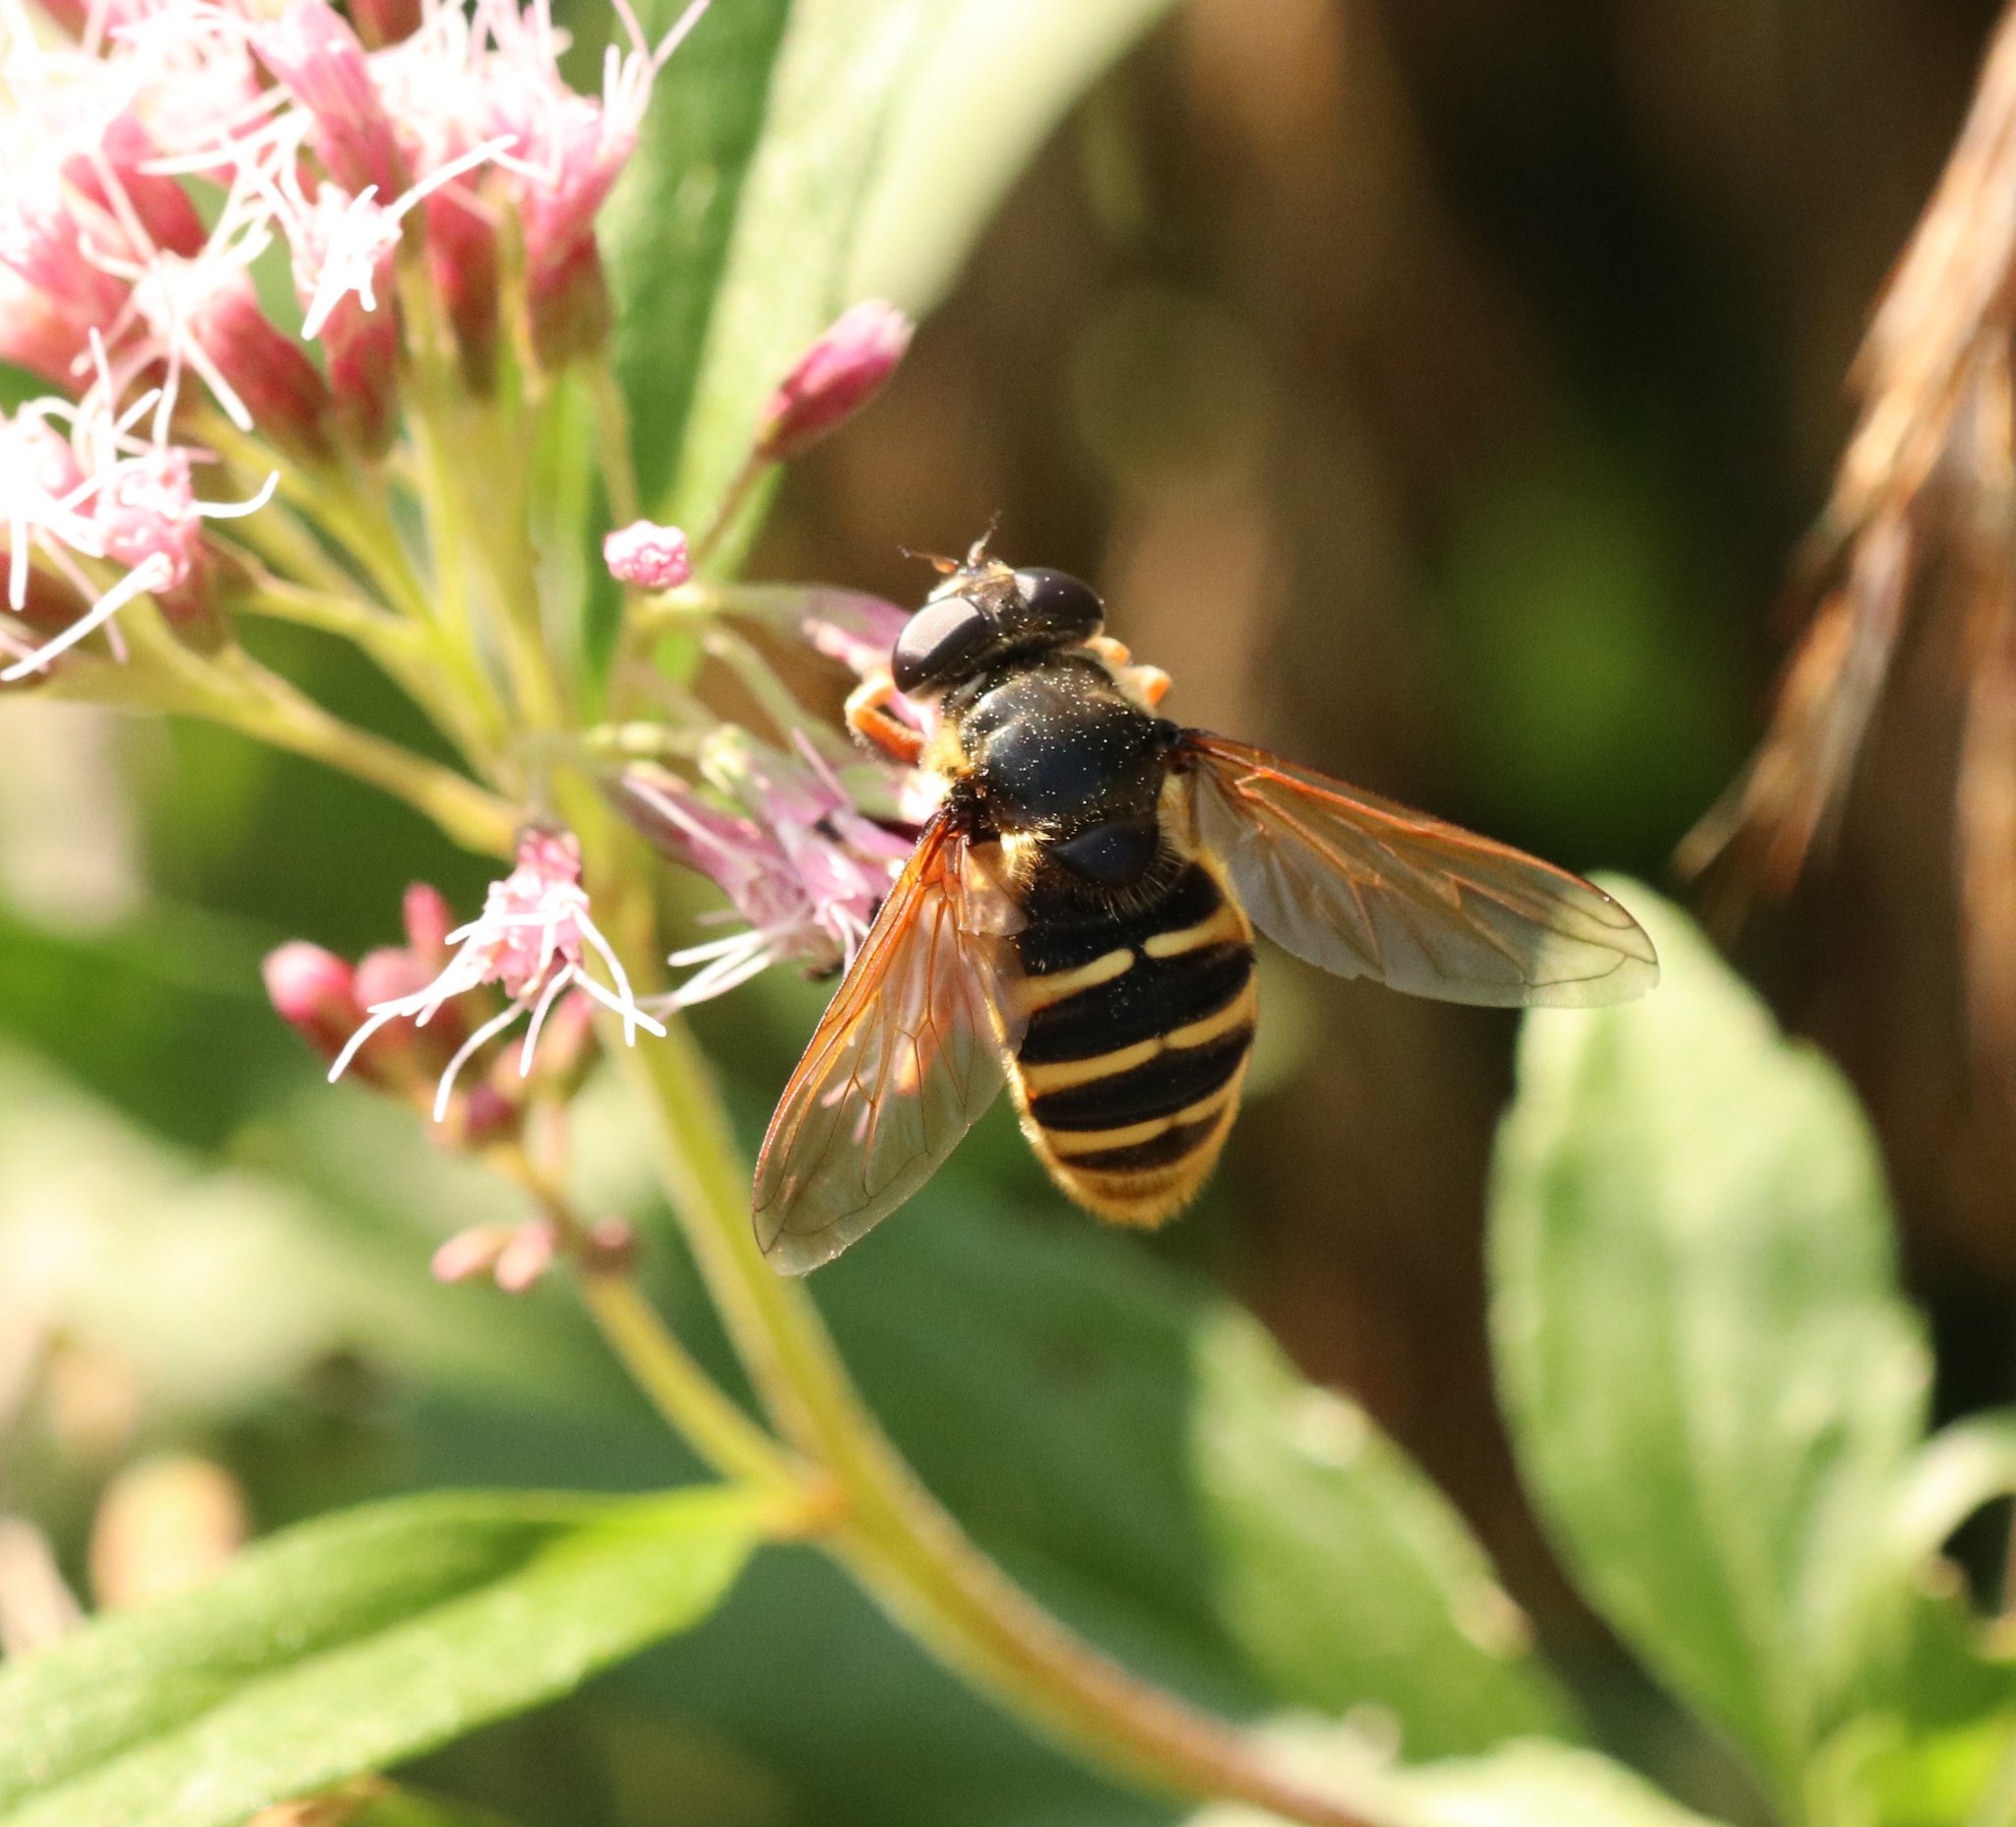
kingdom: Animalia
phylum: Arthropoda
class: Insecta
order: Diptera
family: Syrphidae
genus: Sericomyia
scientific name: Sericomyia silentis
